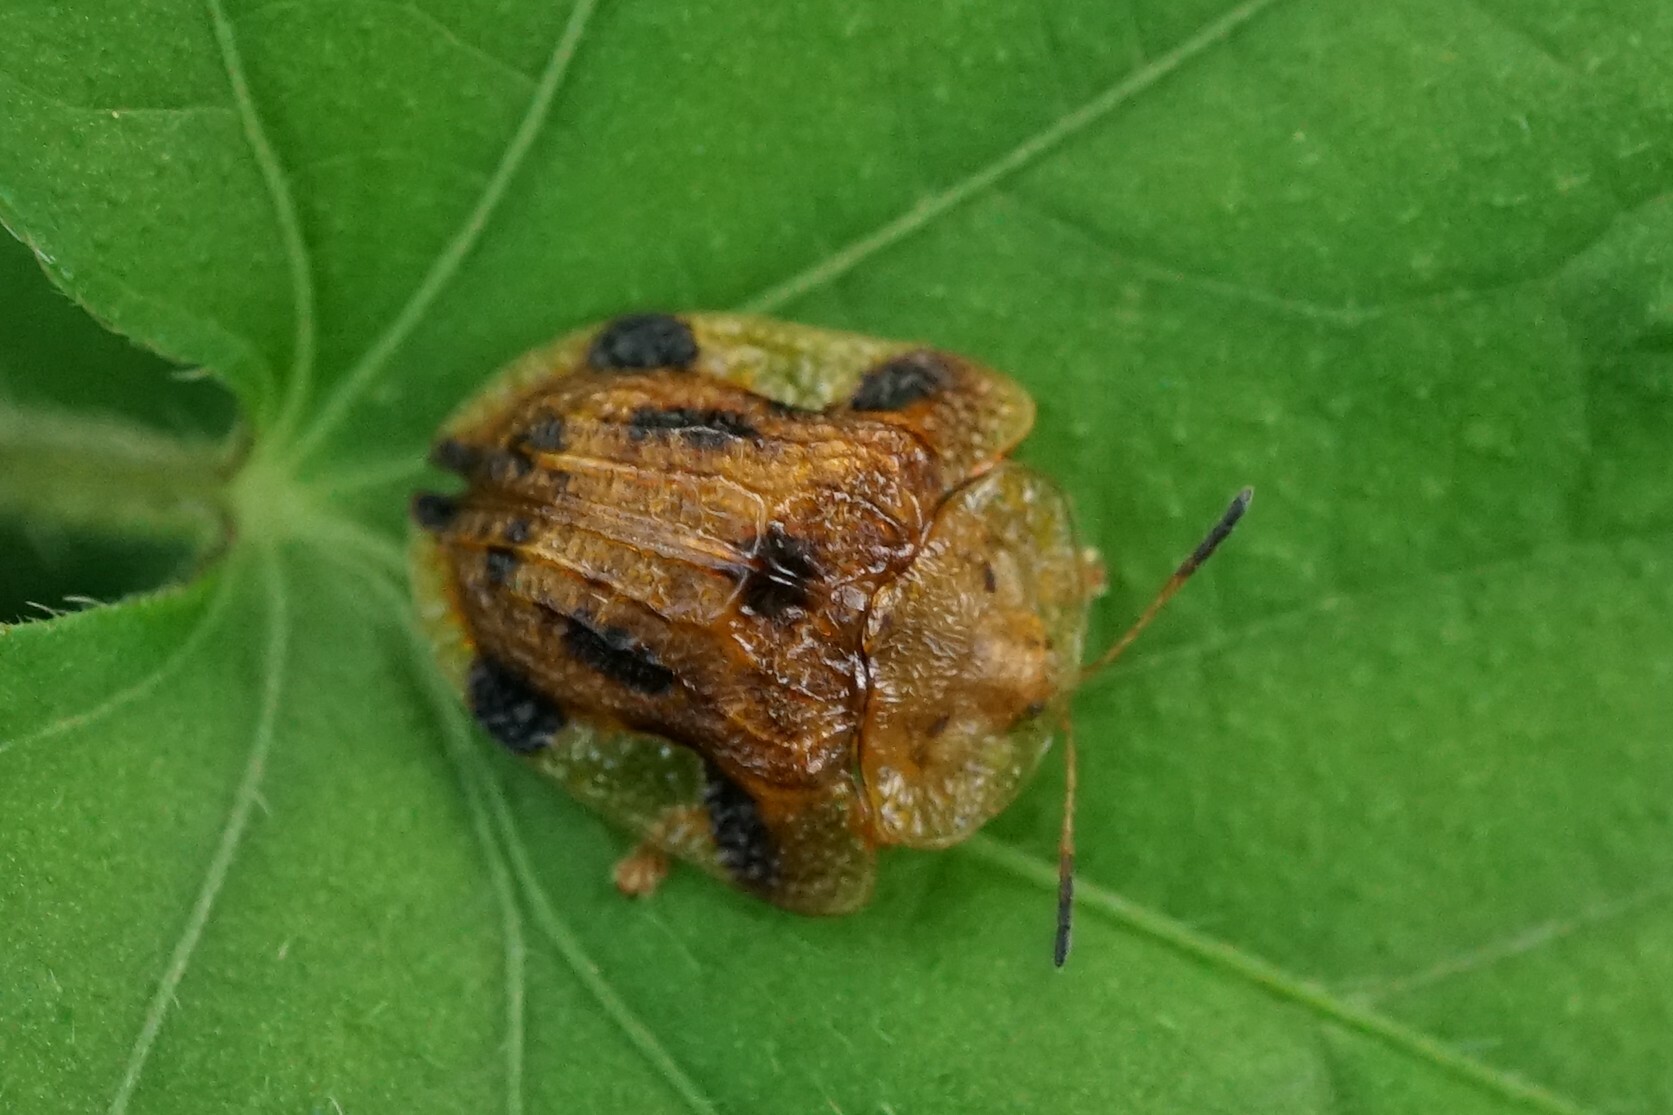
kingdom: Animalia
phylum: Arthropoda
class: Insecta
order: Coleoptera
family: Chrysomelidae
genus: Laccoptera
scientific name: Laccoptera nepalensis
